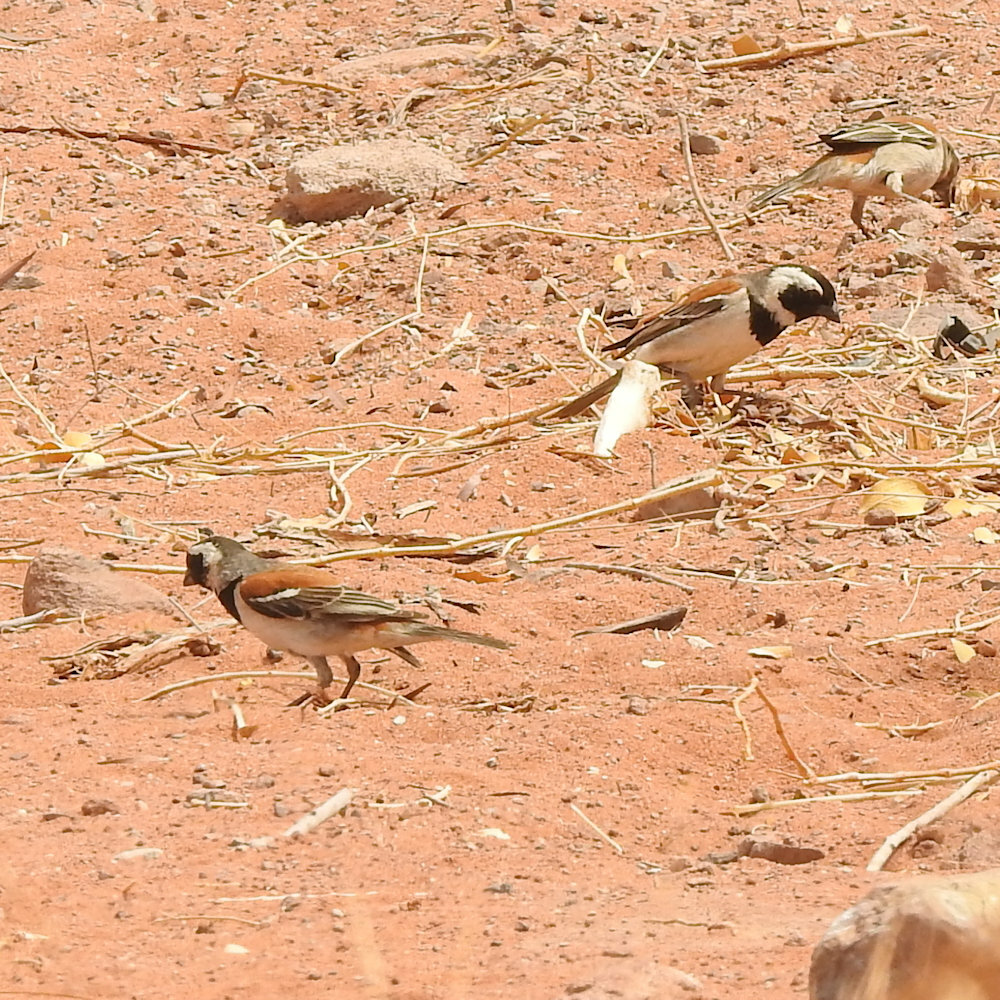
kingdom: Animalia
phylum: Chordata
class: Aves
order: Passeriformes
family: Passeridae
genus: Passer
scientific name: Passer melanurus
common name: Cape sparrow
